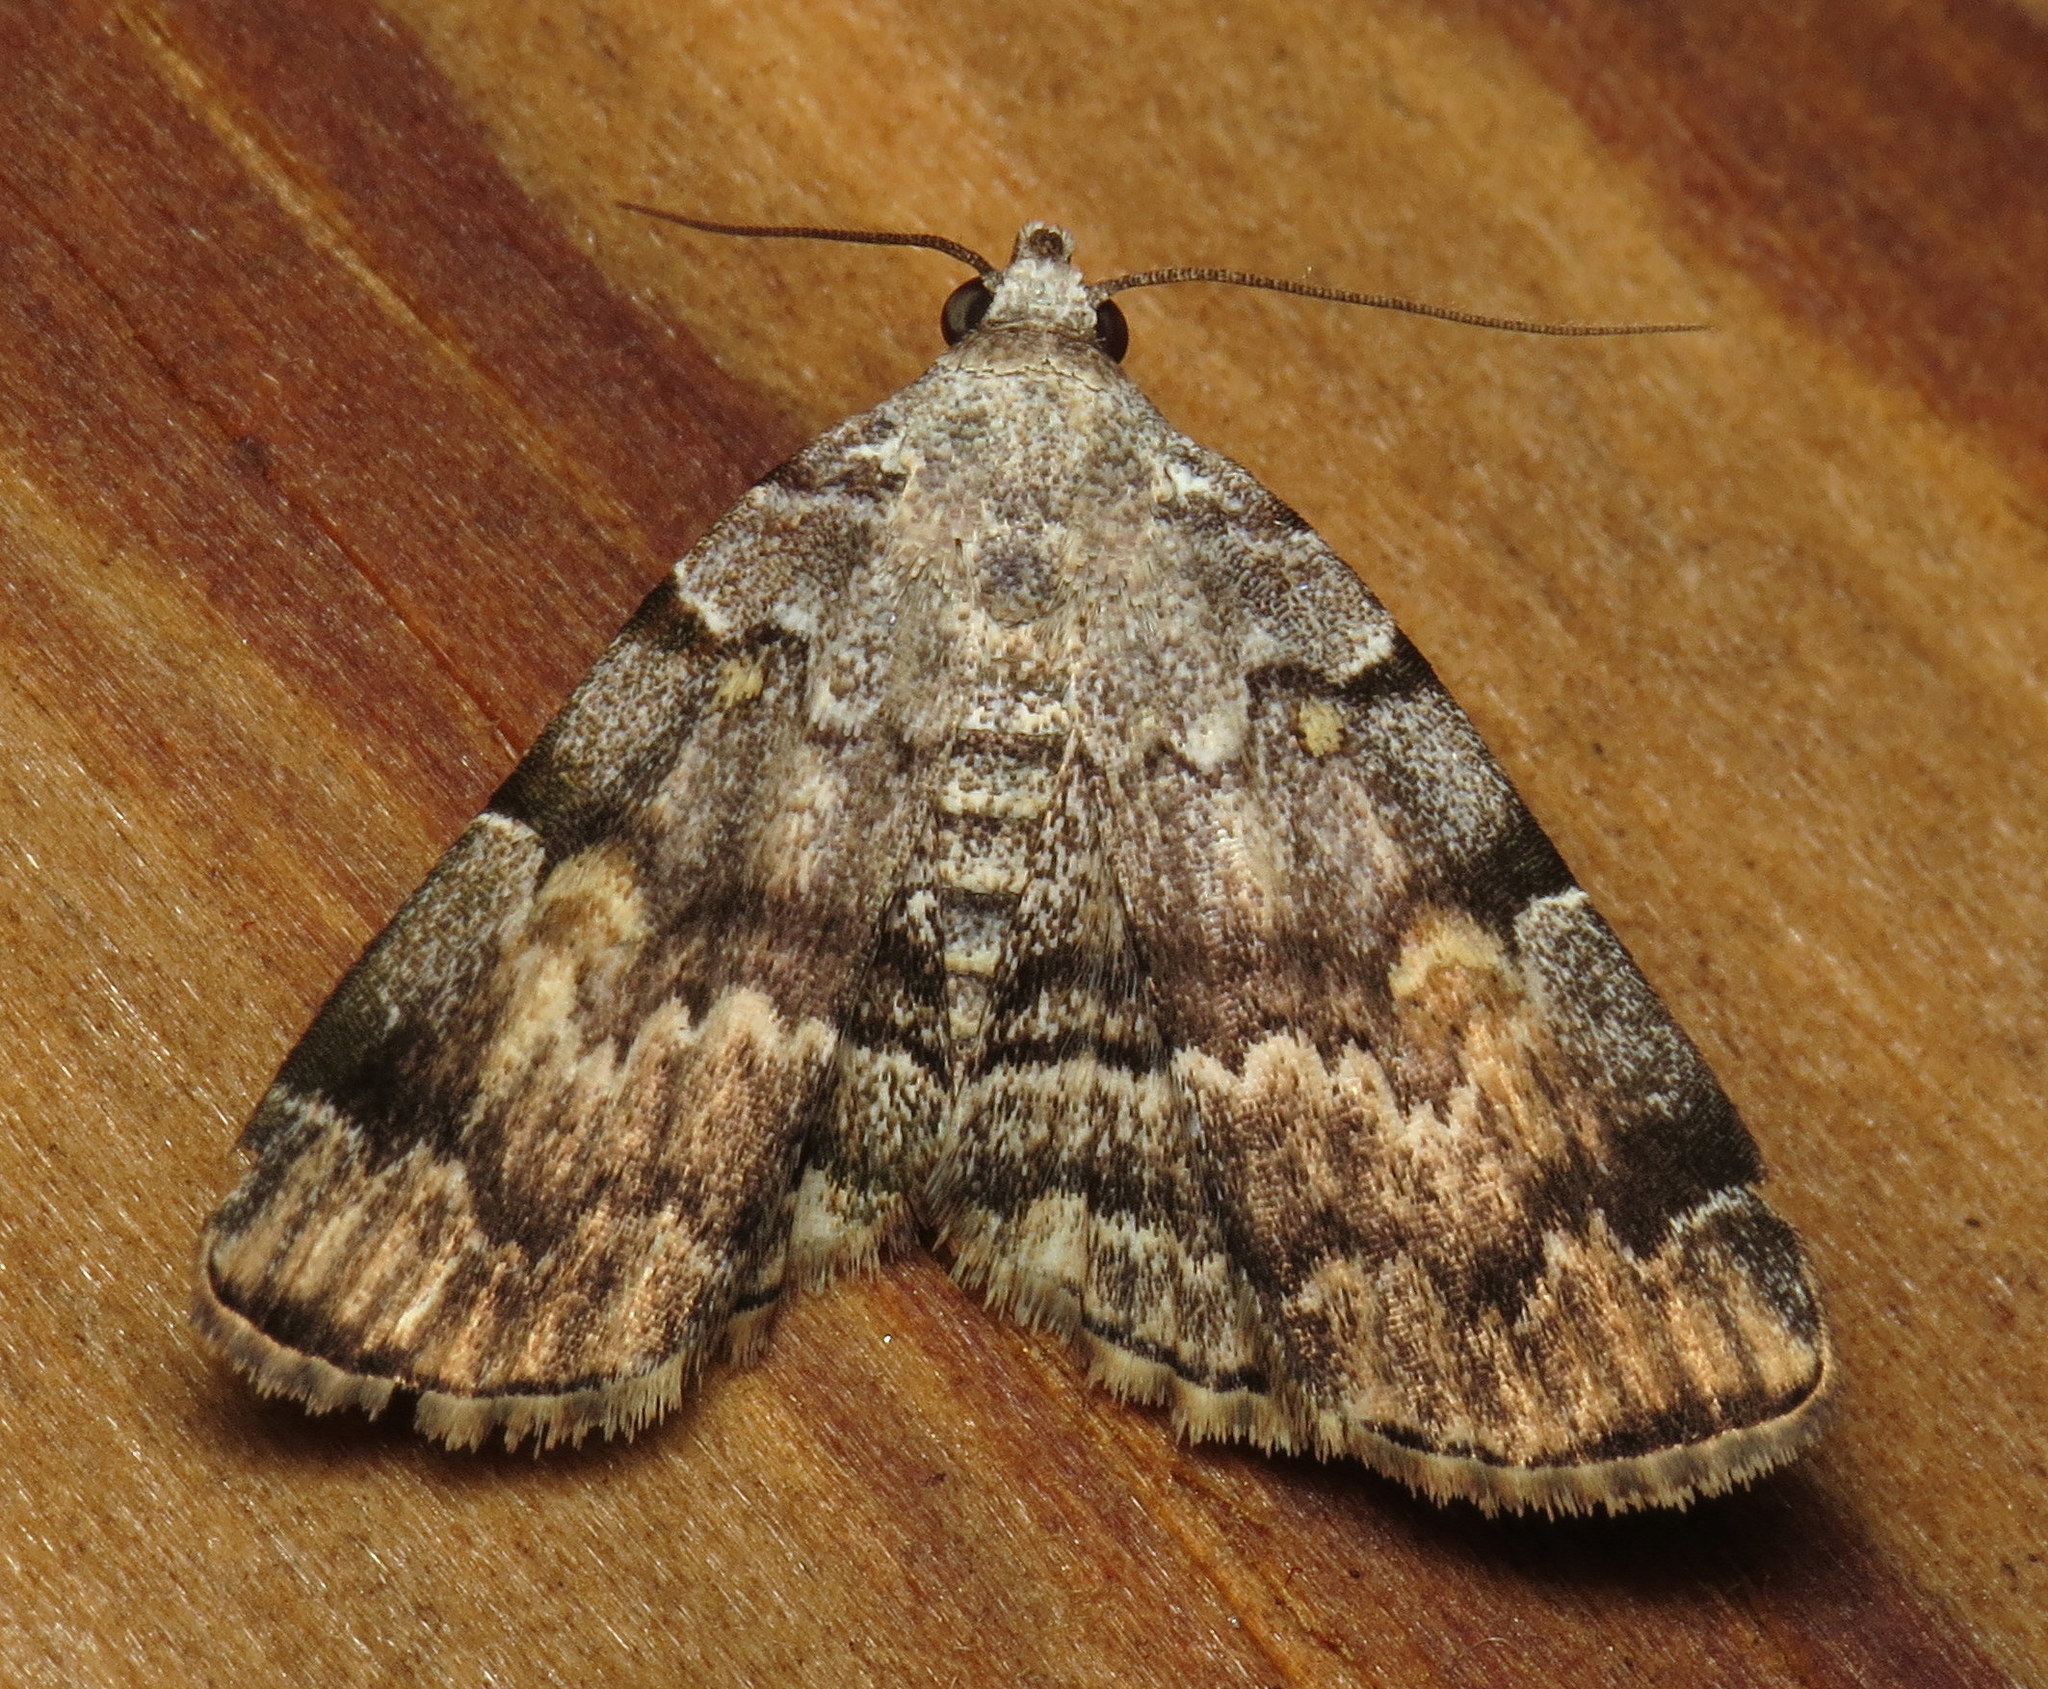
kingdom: Animalia
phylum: Arthropoda
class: Insecta
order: Lepidoptera
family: Erebidae
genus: Idia
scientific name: Idia americalis
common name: American idia moth
